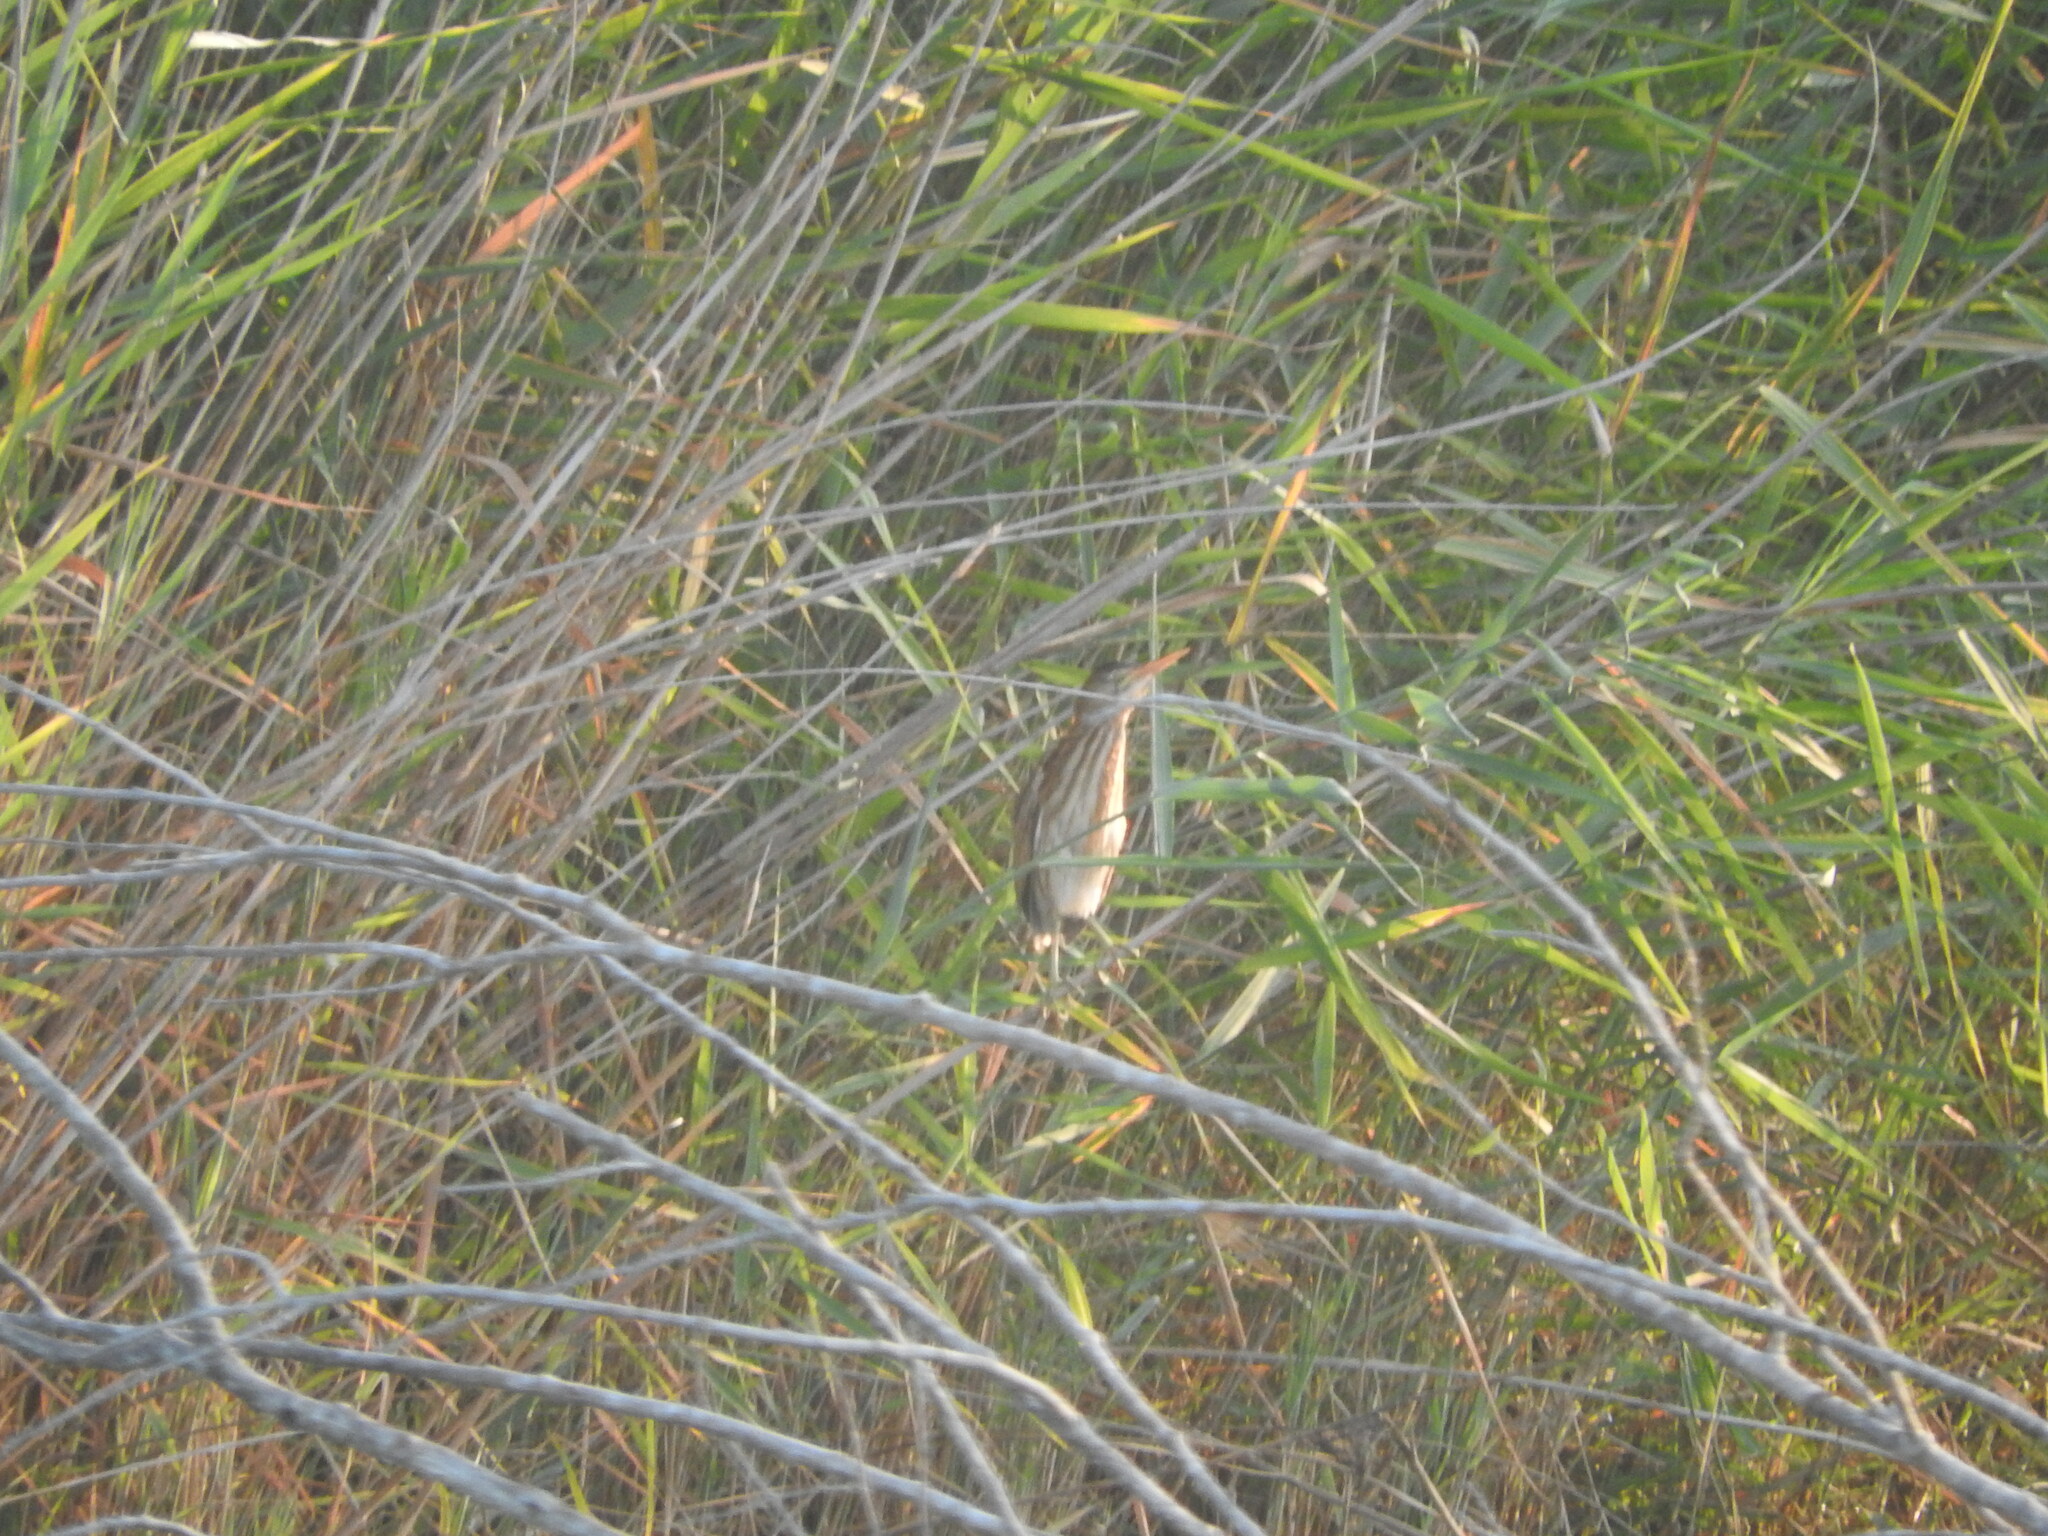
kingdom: Animalia
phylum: Chordata
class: Aves
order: Pelecaniformes
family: Ardeidae
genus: Ixobrychus
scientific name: Ixobrychus minutus
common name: Little bittern
